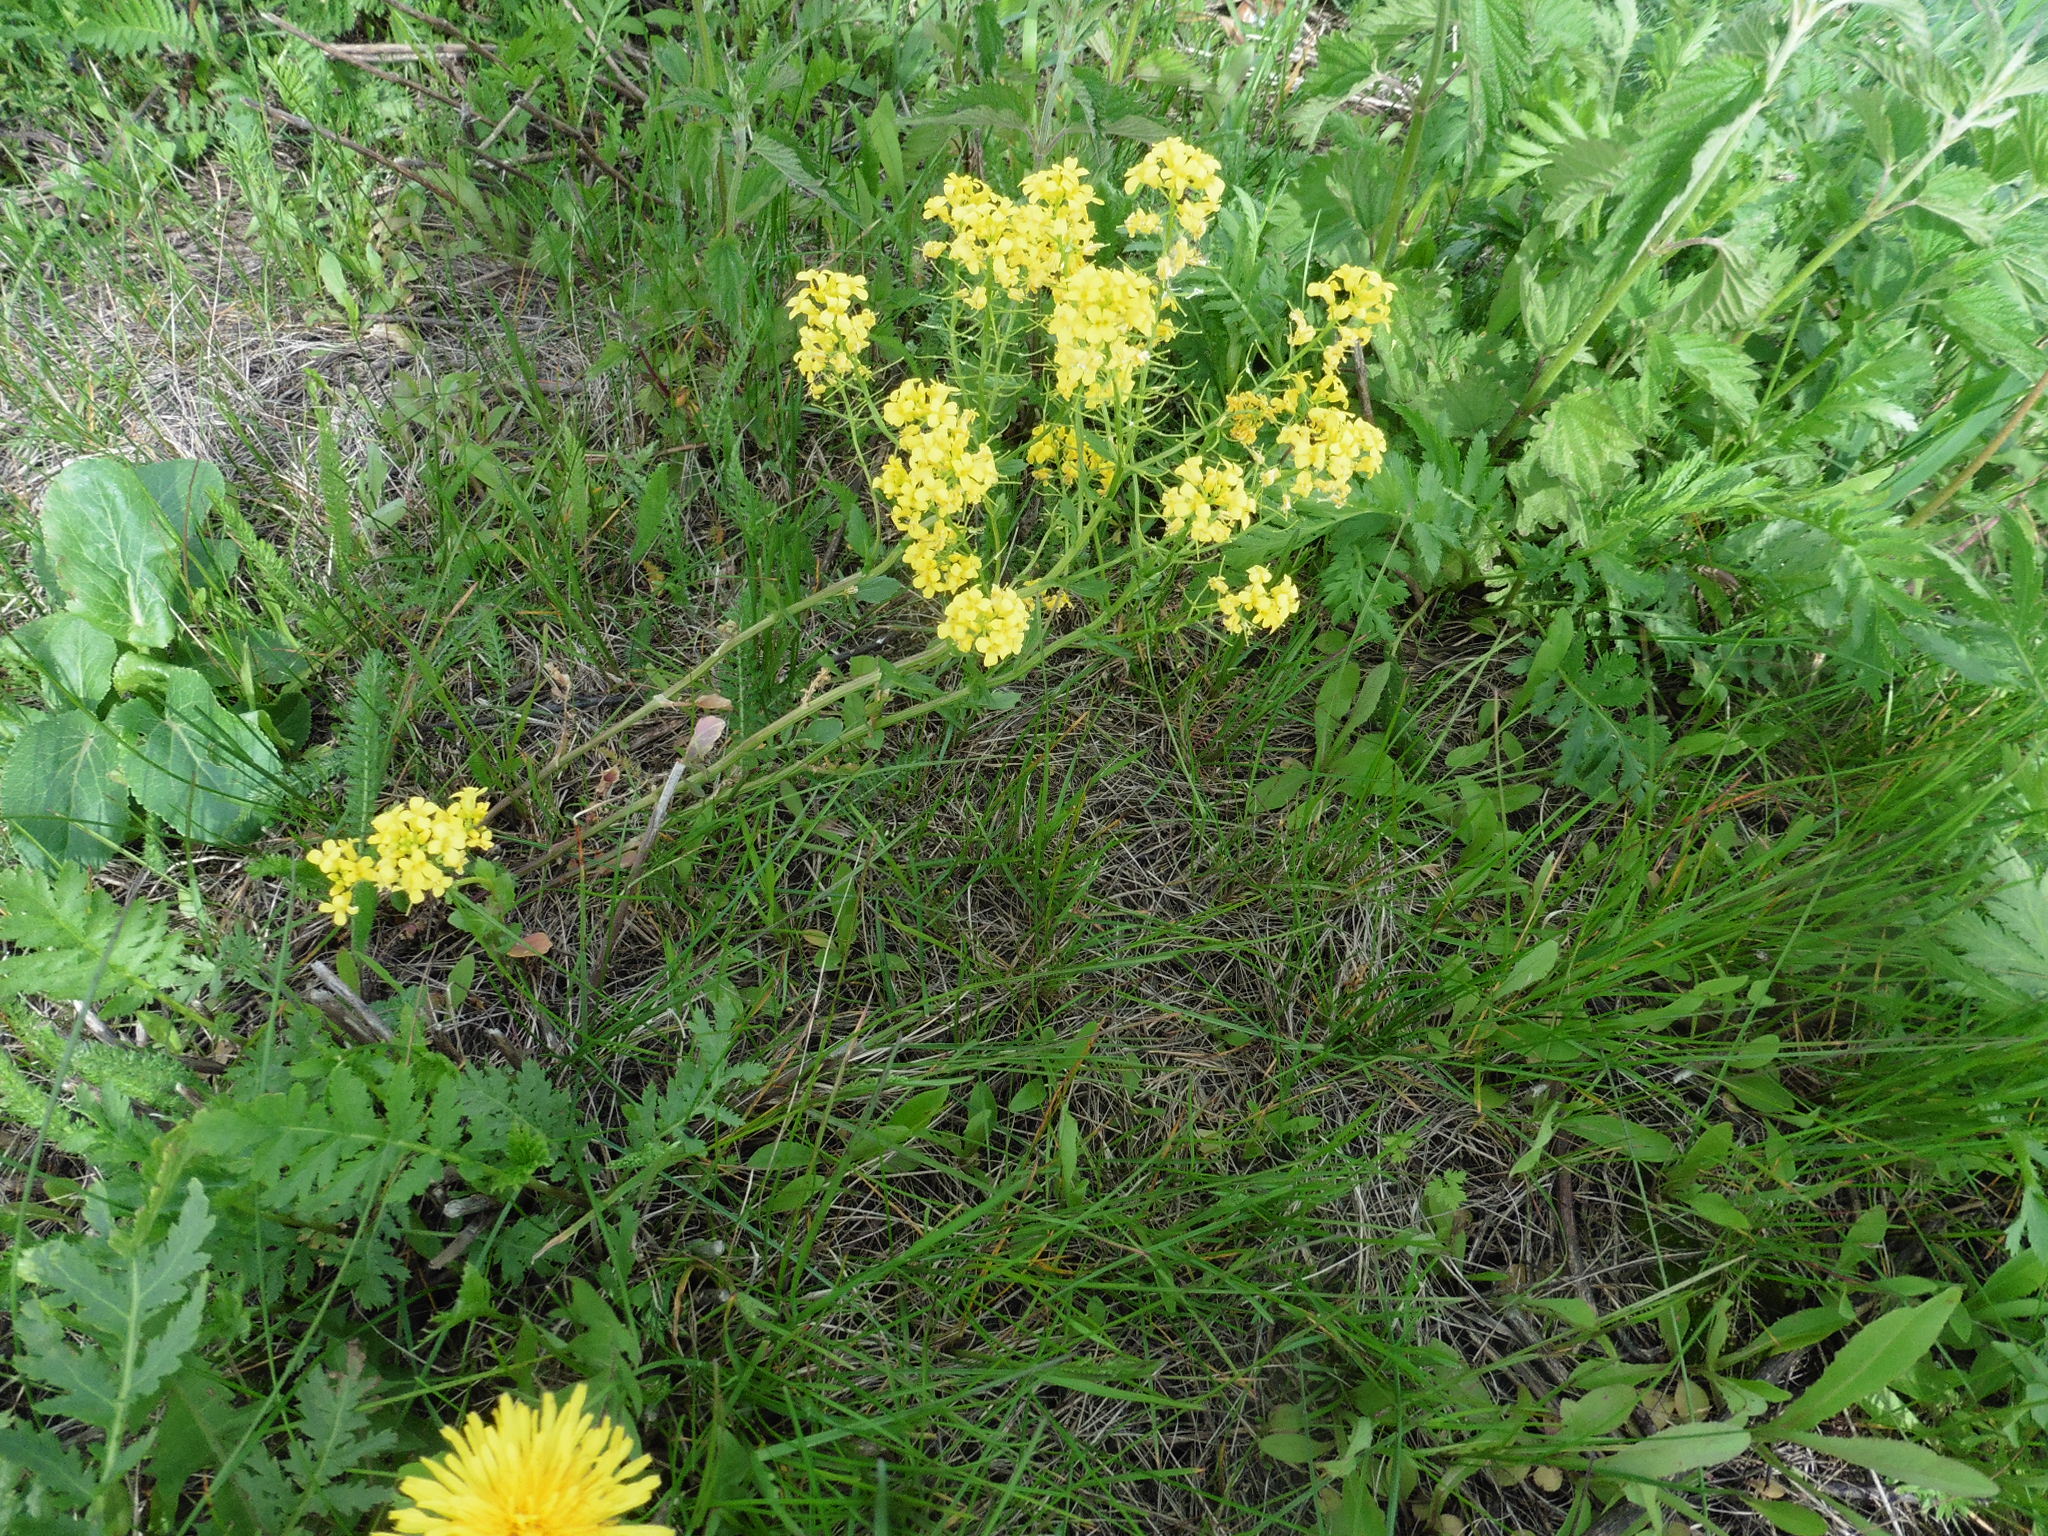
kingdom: Plantae
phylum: Tracheophyta
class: Magnoliopsida
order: Brassicales
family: Brassicaceae
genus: Barbarea
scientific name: Barbarea vulgaris
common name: Cressy-greens
